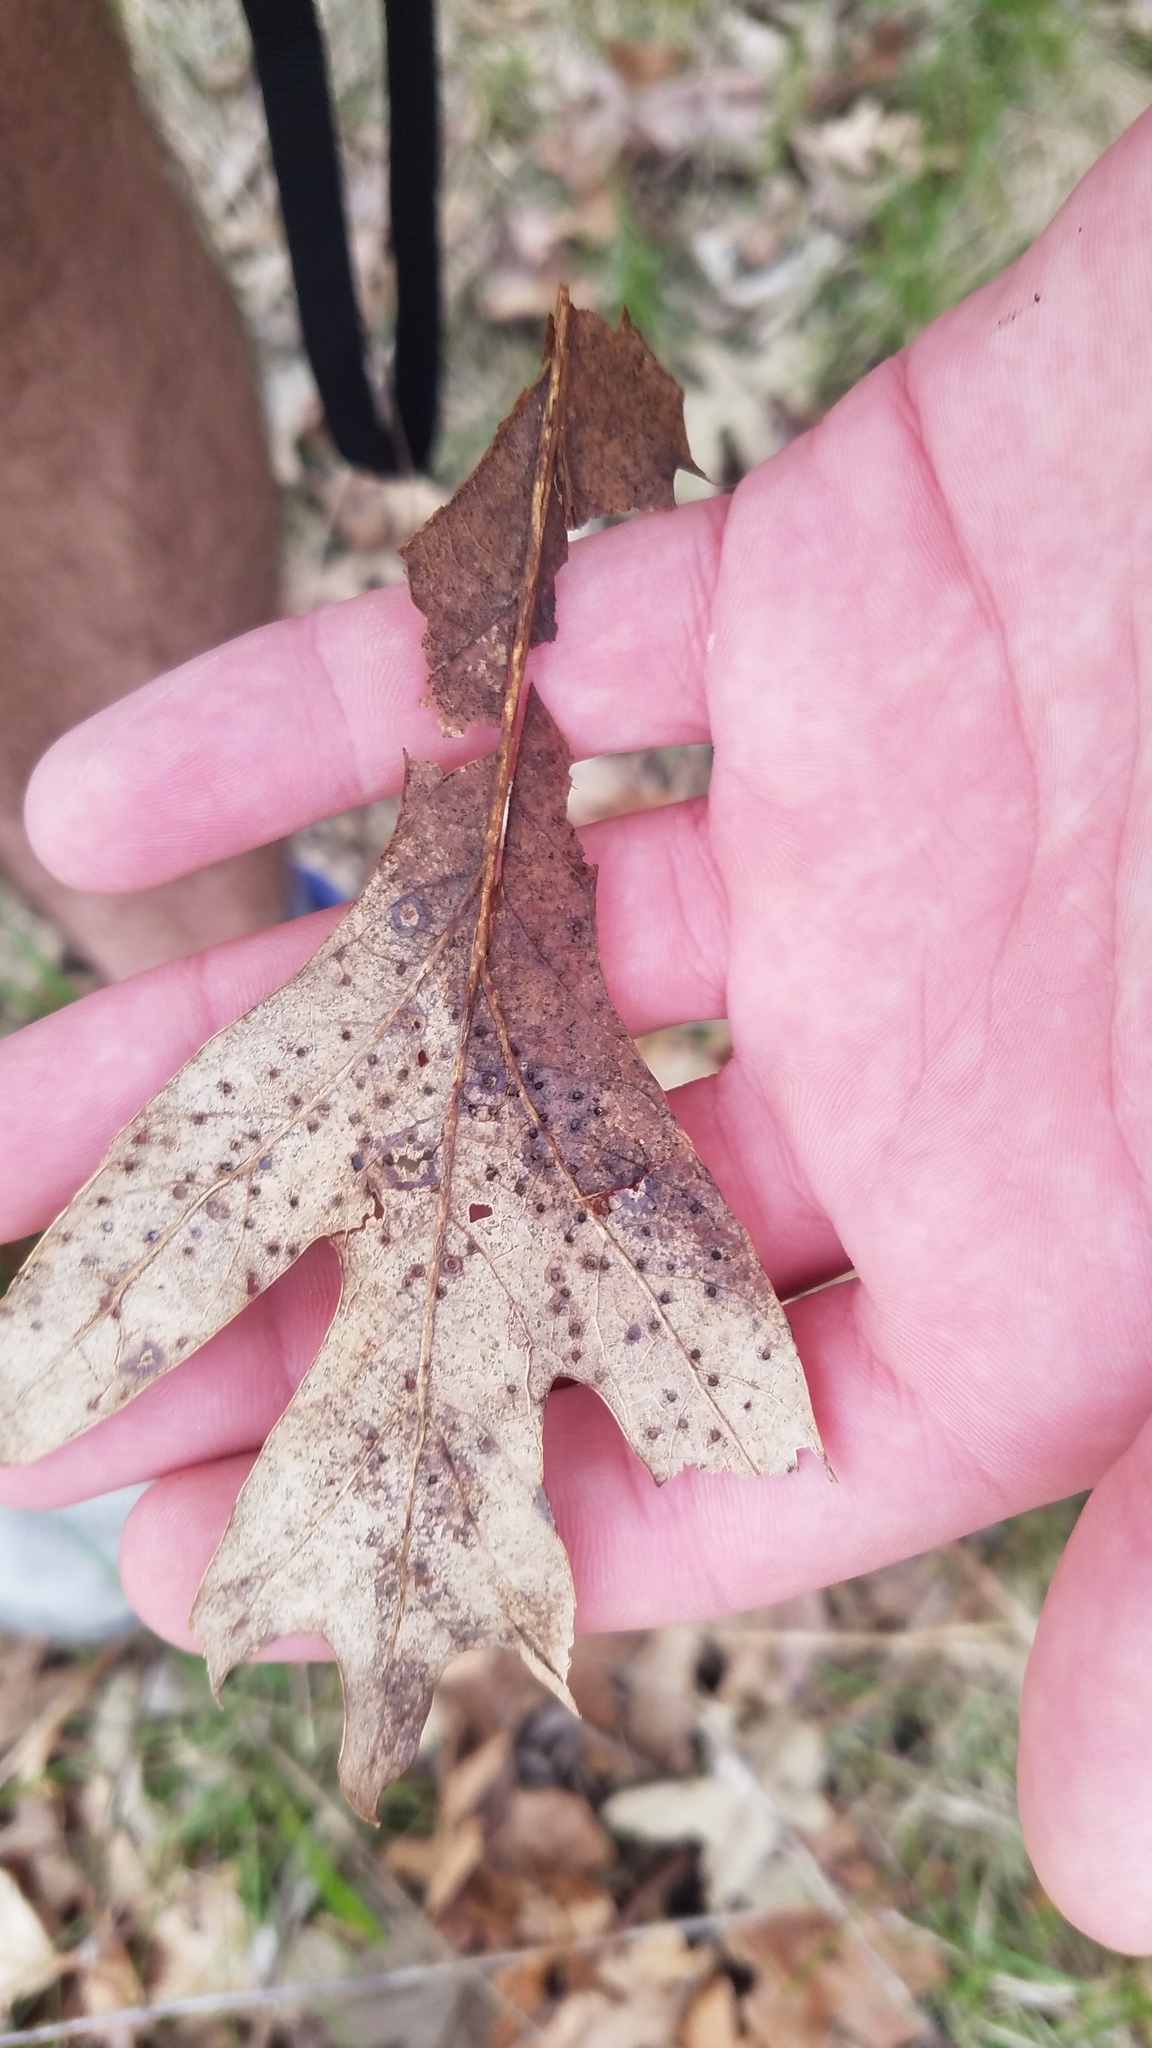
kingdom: Animalia
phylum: Arthropoda
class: Insecta
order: Hymenoptera
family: Cynipidae
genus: Neuroterus
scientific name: Neuroterus
